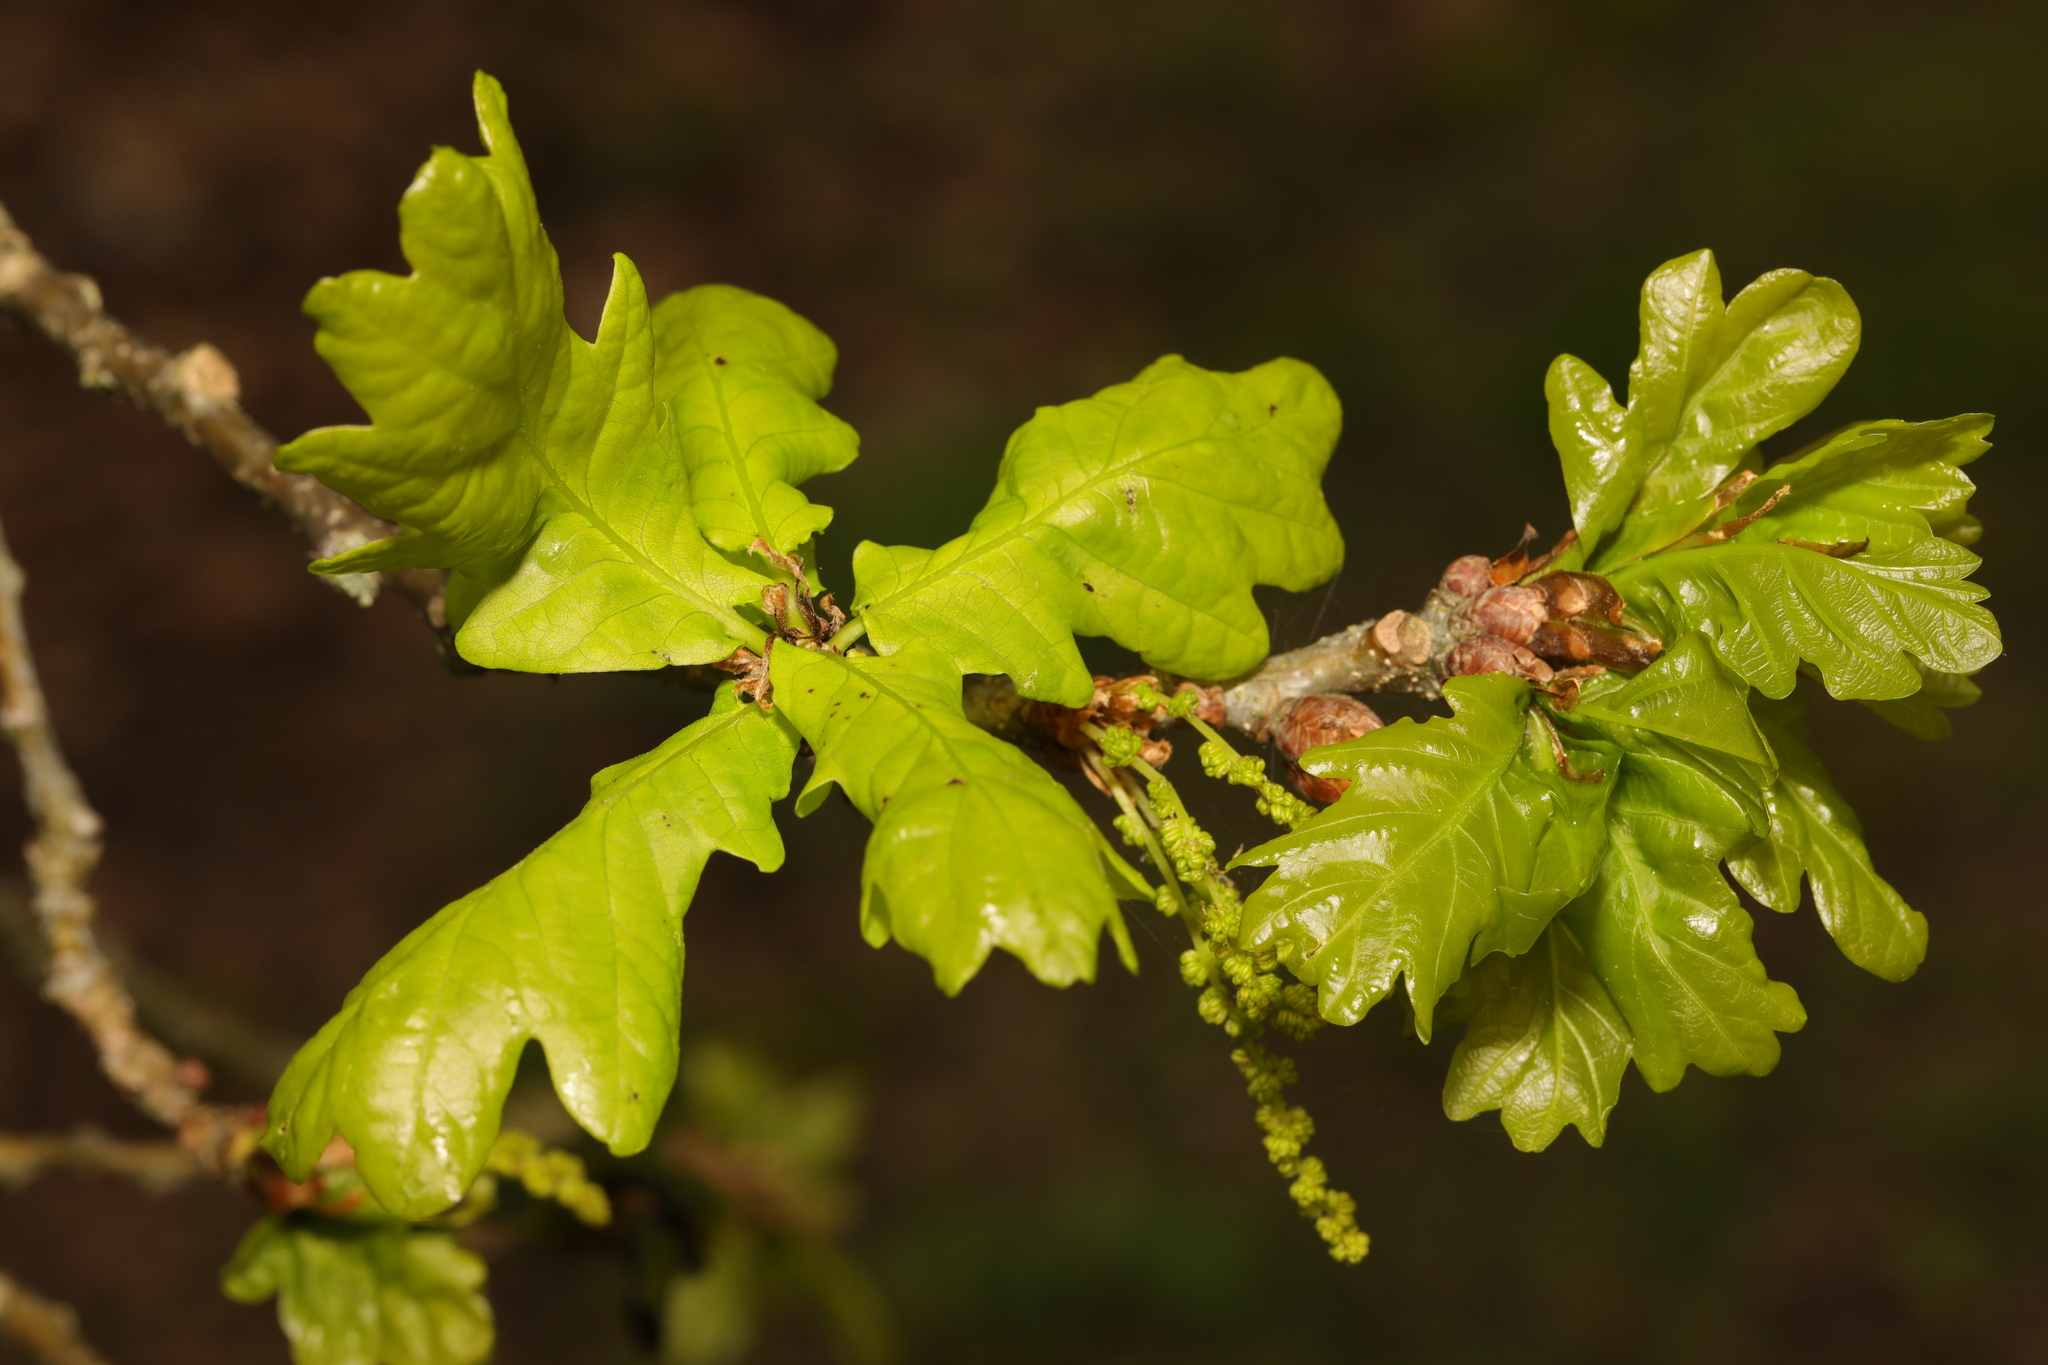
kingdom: Plantae
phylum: Tracheophyta
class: Magnoliopsida
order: Fagales
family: Fagaceae
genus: Quercus
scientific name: Quercus robur
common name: Pedunculate oak
